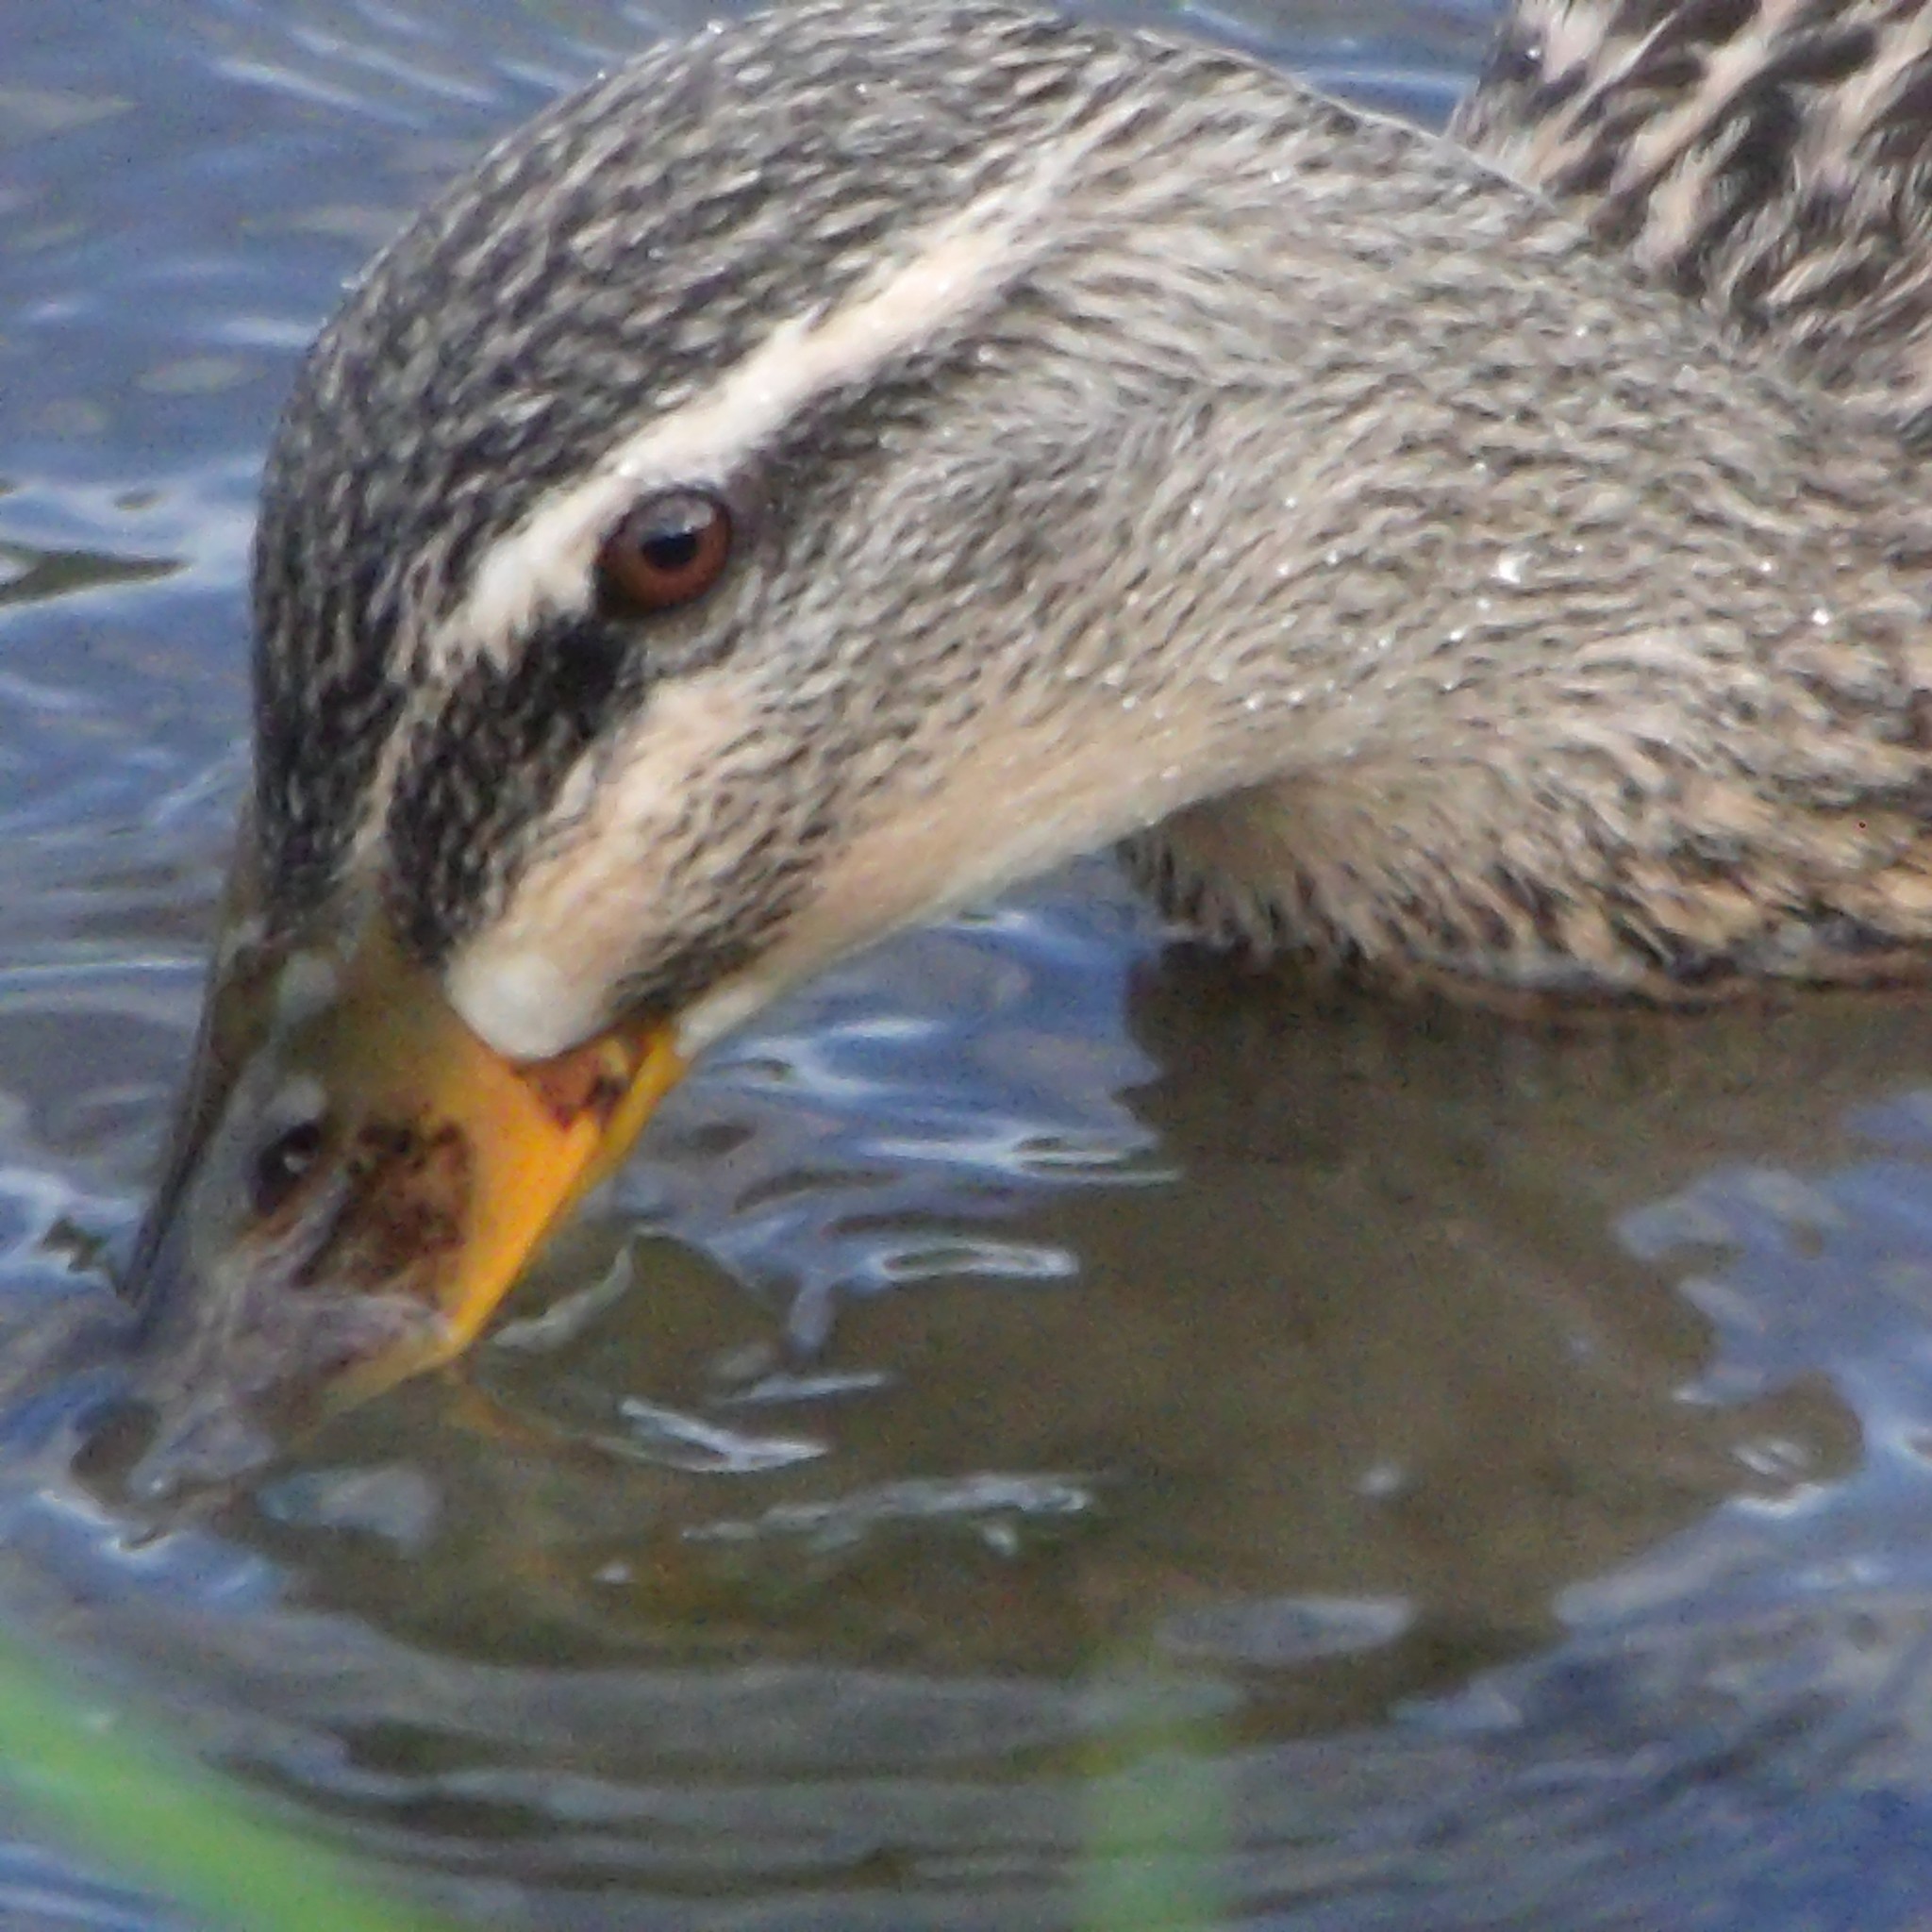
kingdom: Animalia
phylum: Chordata
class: Aves
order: Anseriformes
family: Anatidae
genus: Anas
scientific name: Anas
